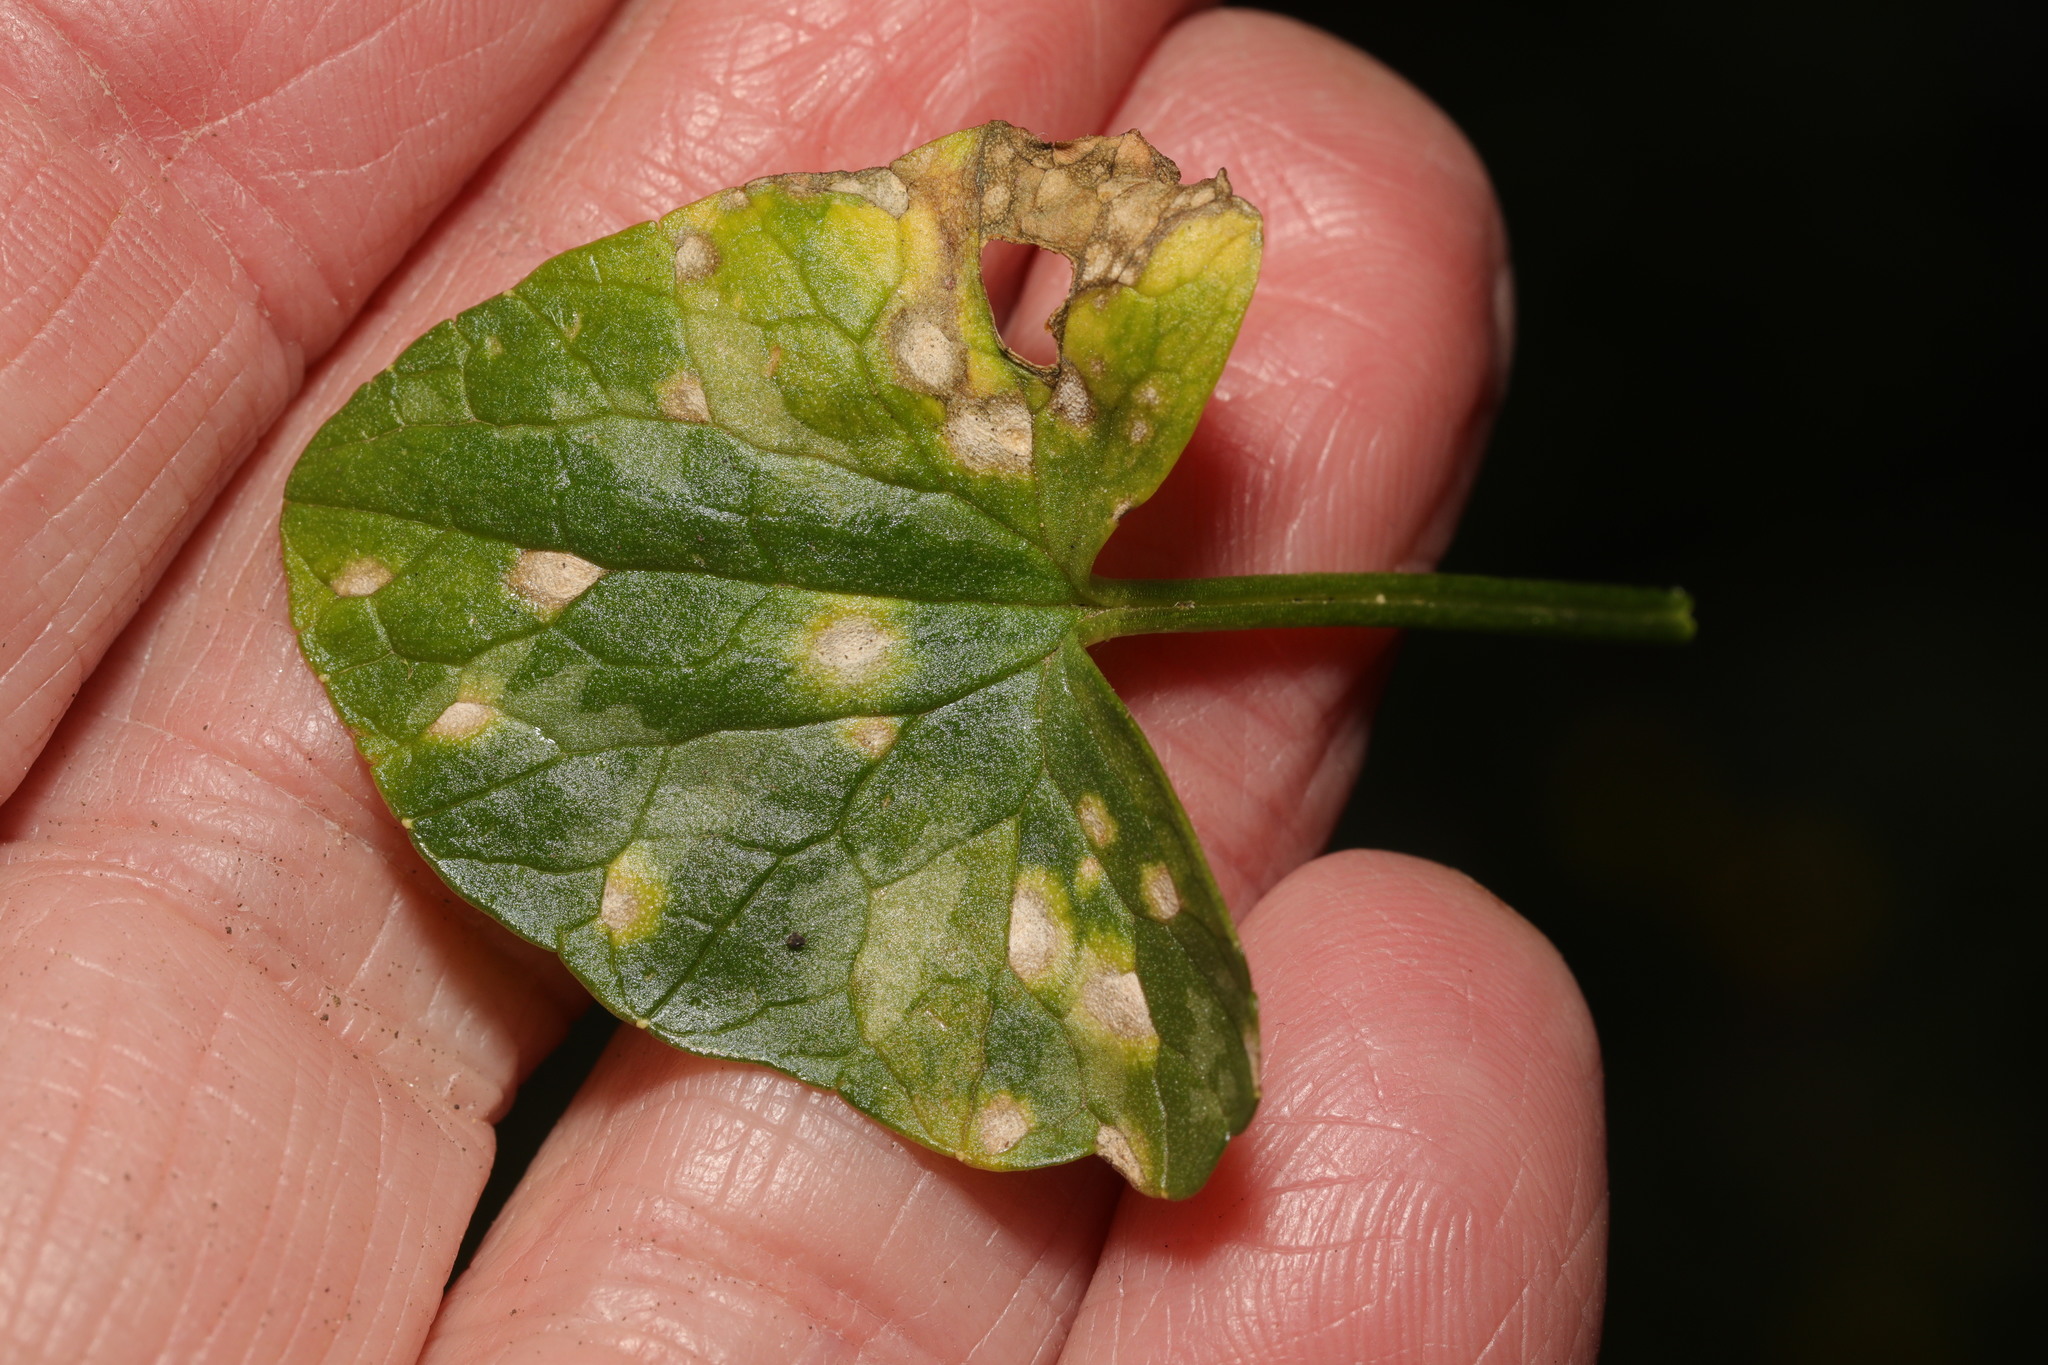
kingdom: Fungi
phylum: Basidiomycota
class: Exobasidiomycetes
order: Entylomatales
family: Entylomataceae
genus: Entyloma
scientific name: Entyloma ficariae
